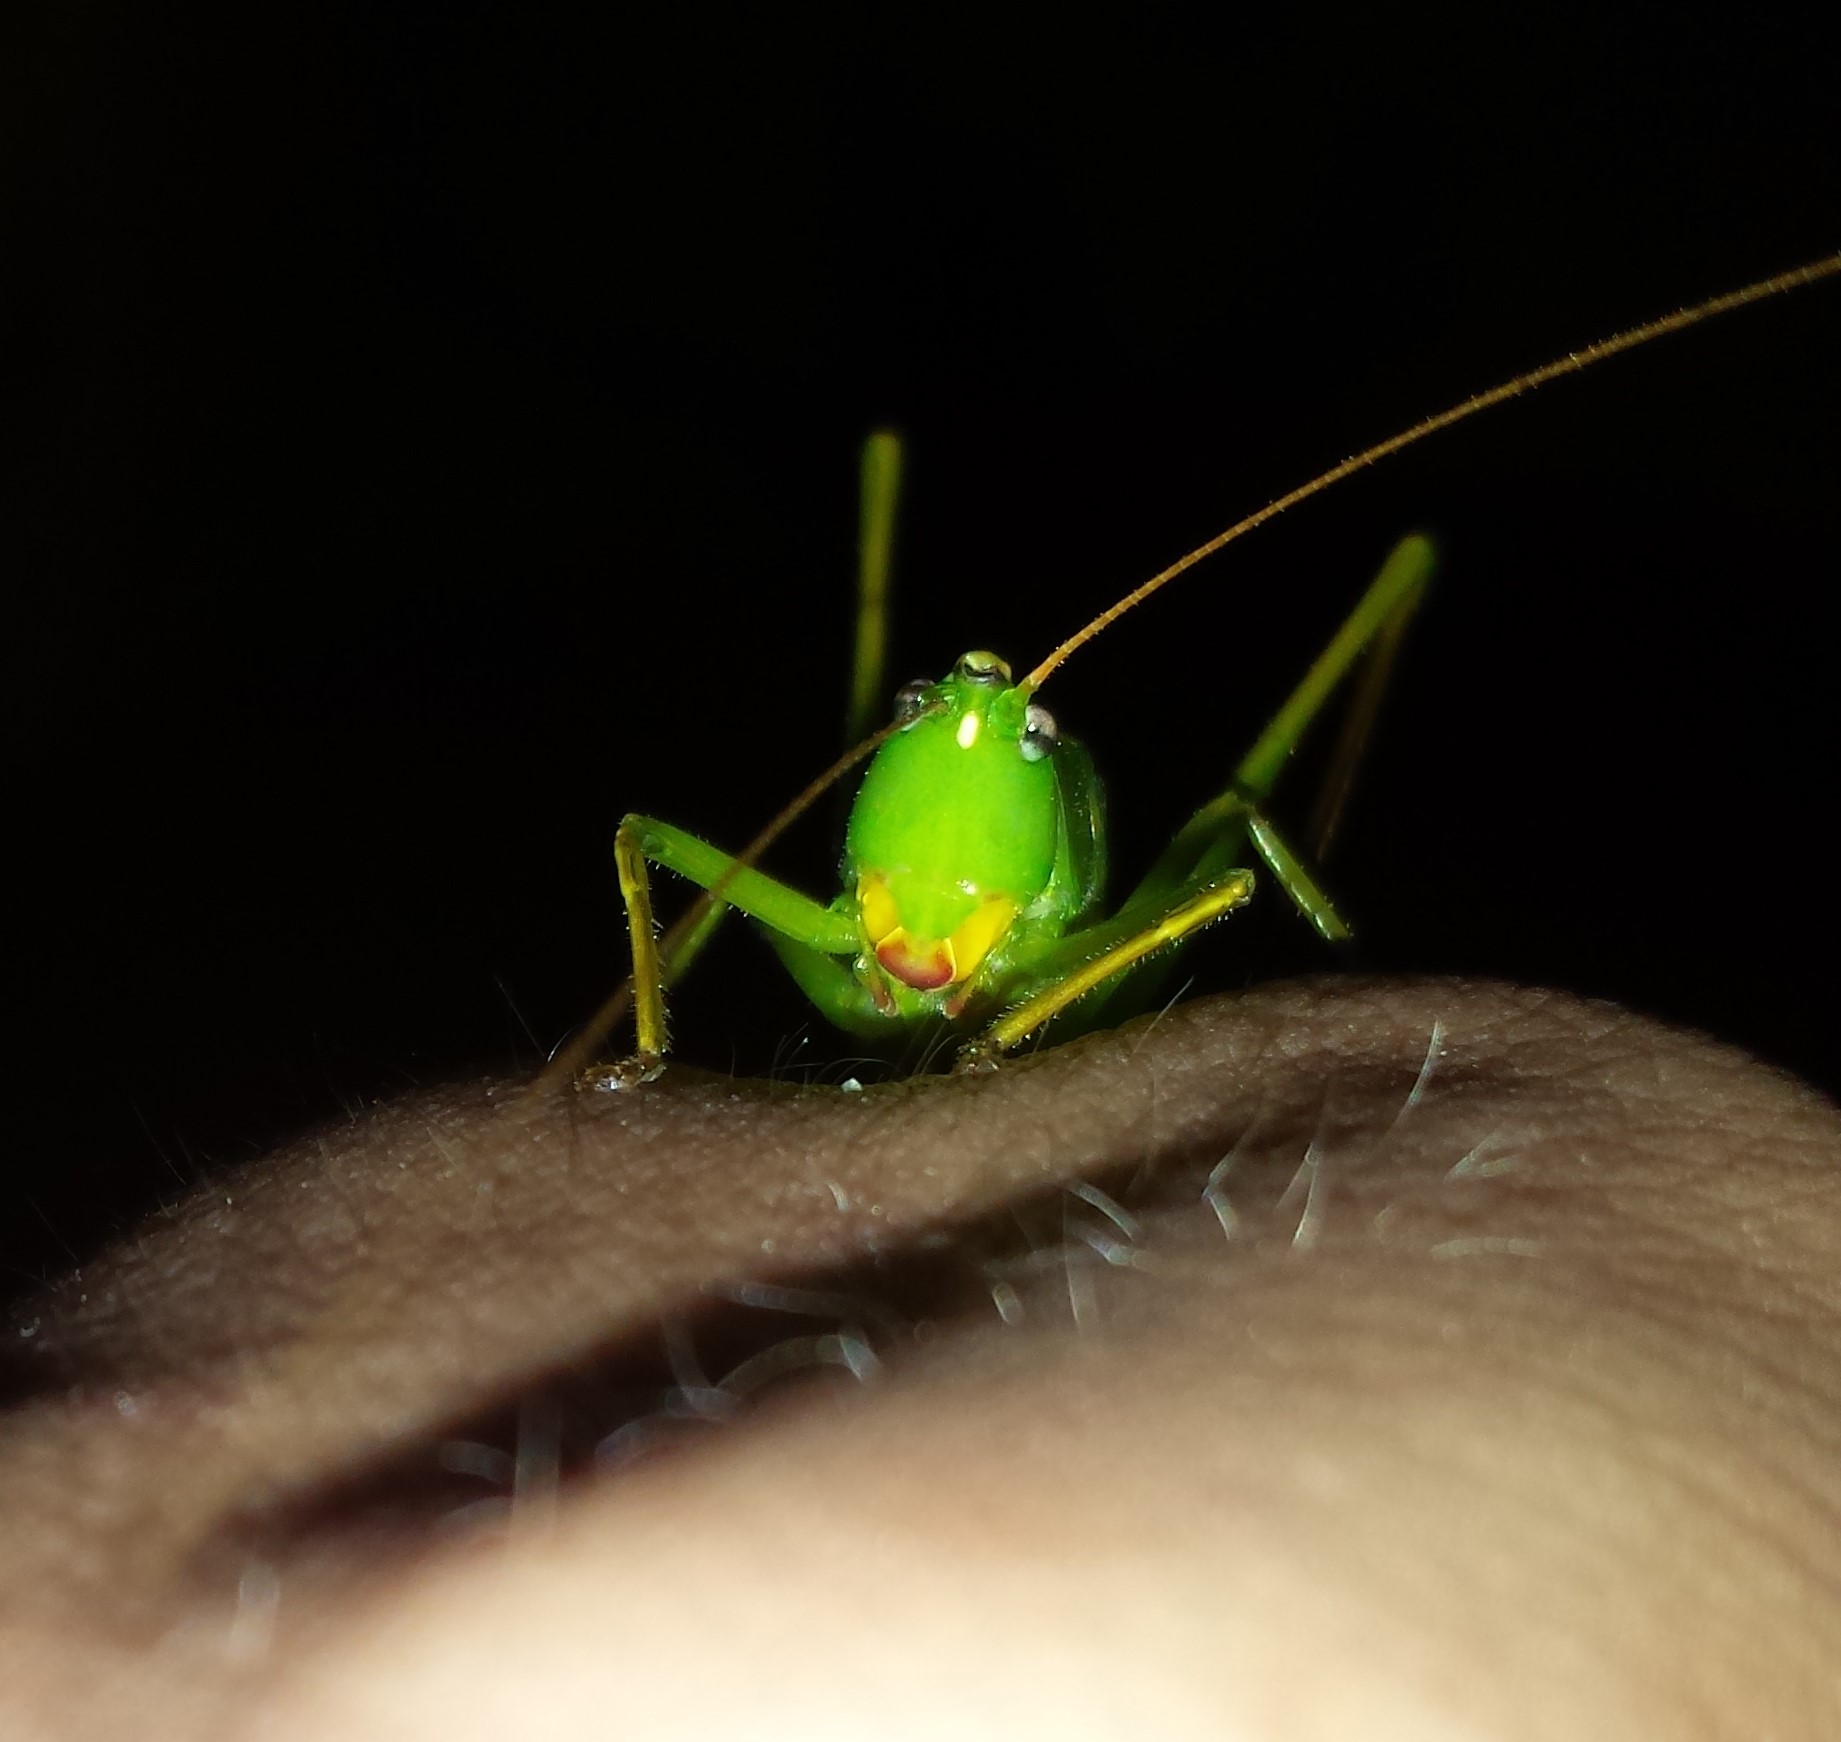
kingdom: Animalia
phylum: Arthropoda
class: Insecta
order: Orthoptera
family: Tettigoniidae
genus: Neoconocephalus
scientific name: Neoconocephalus retusus
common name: Round-tipped conehead
